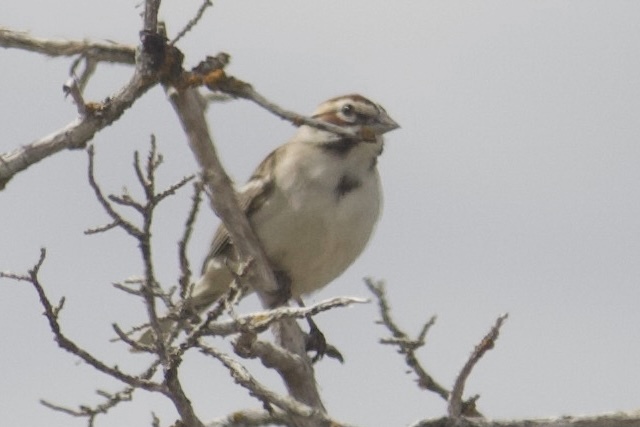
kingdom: Animalia
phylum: Chordata
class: Aves
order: Passeriformes
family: Passerellidae
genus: Chondestes
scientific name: Chondestes grammacus
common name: Lark sparrow
